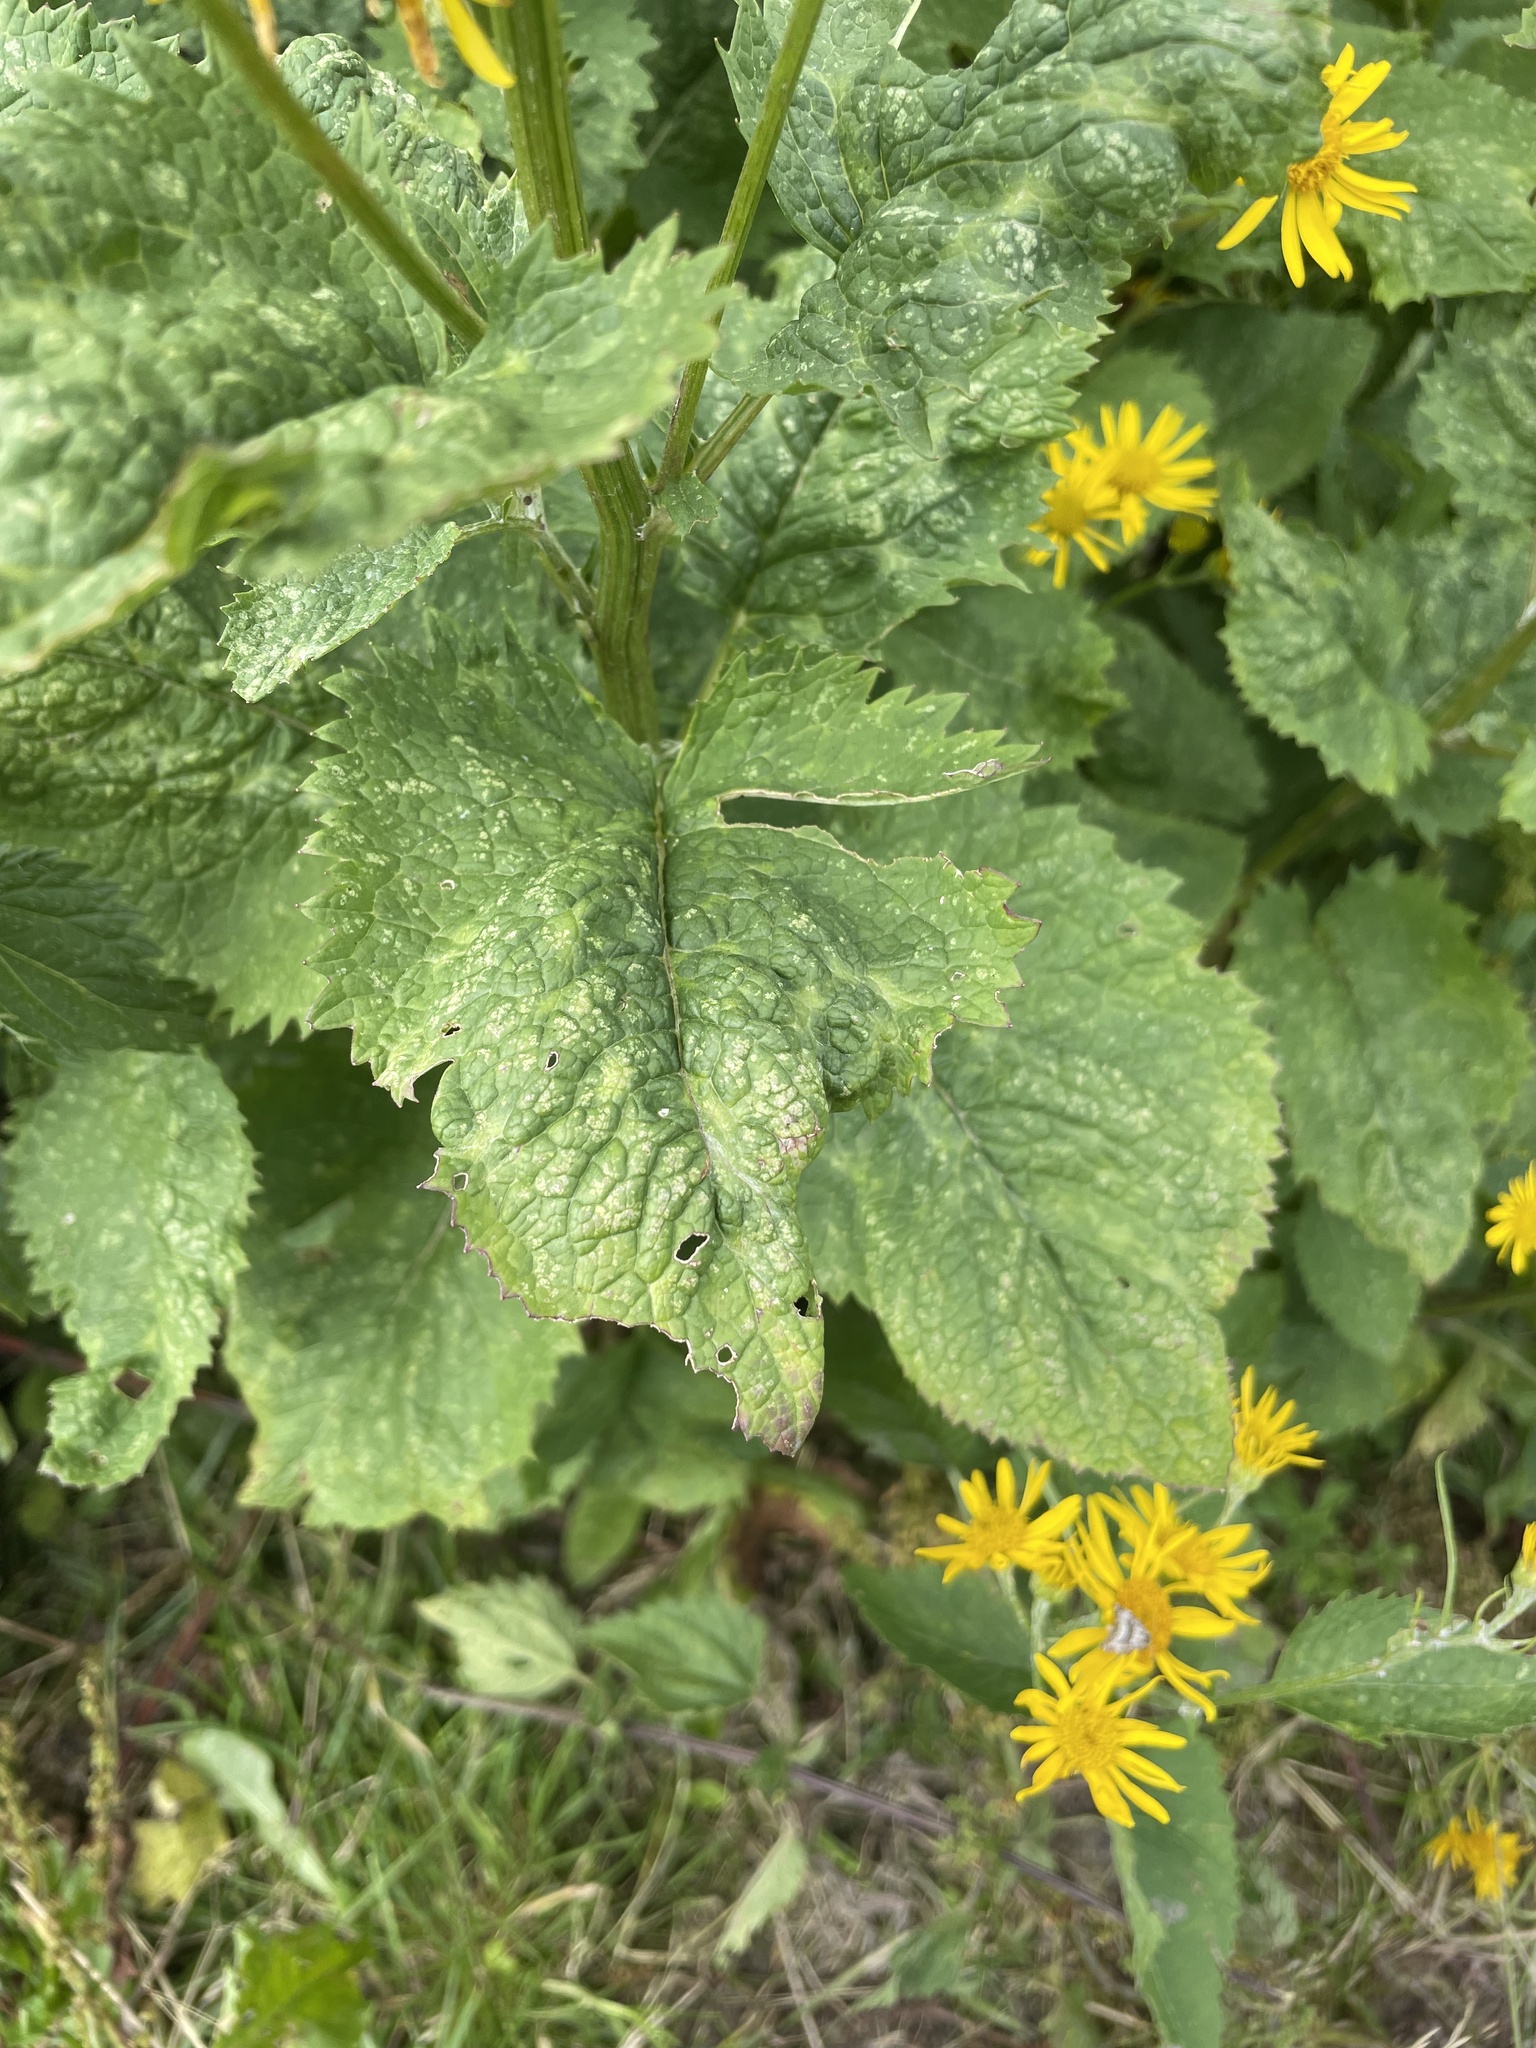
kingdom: Plantae
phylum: Tracheophyta
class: Magnoliopsida
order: Asterales
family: Asteraceae
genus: Jacobaea
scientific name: Jacobaea alpina
